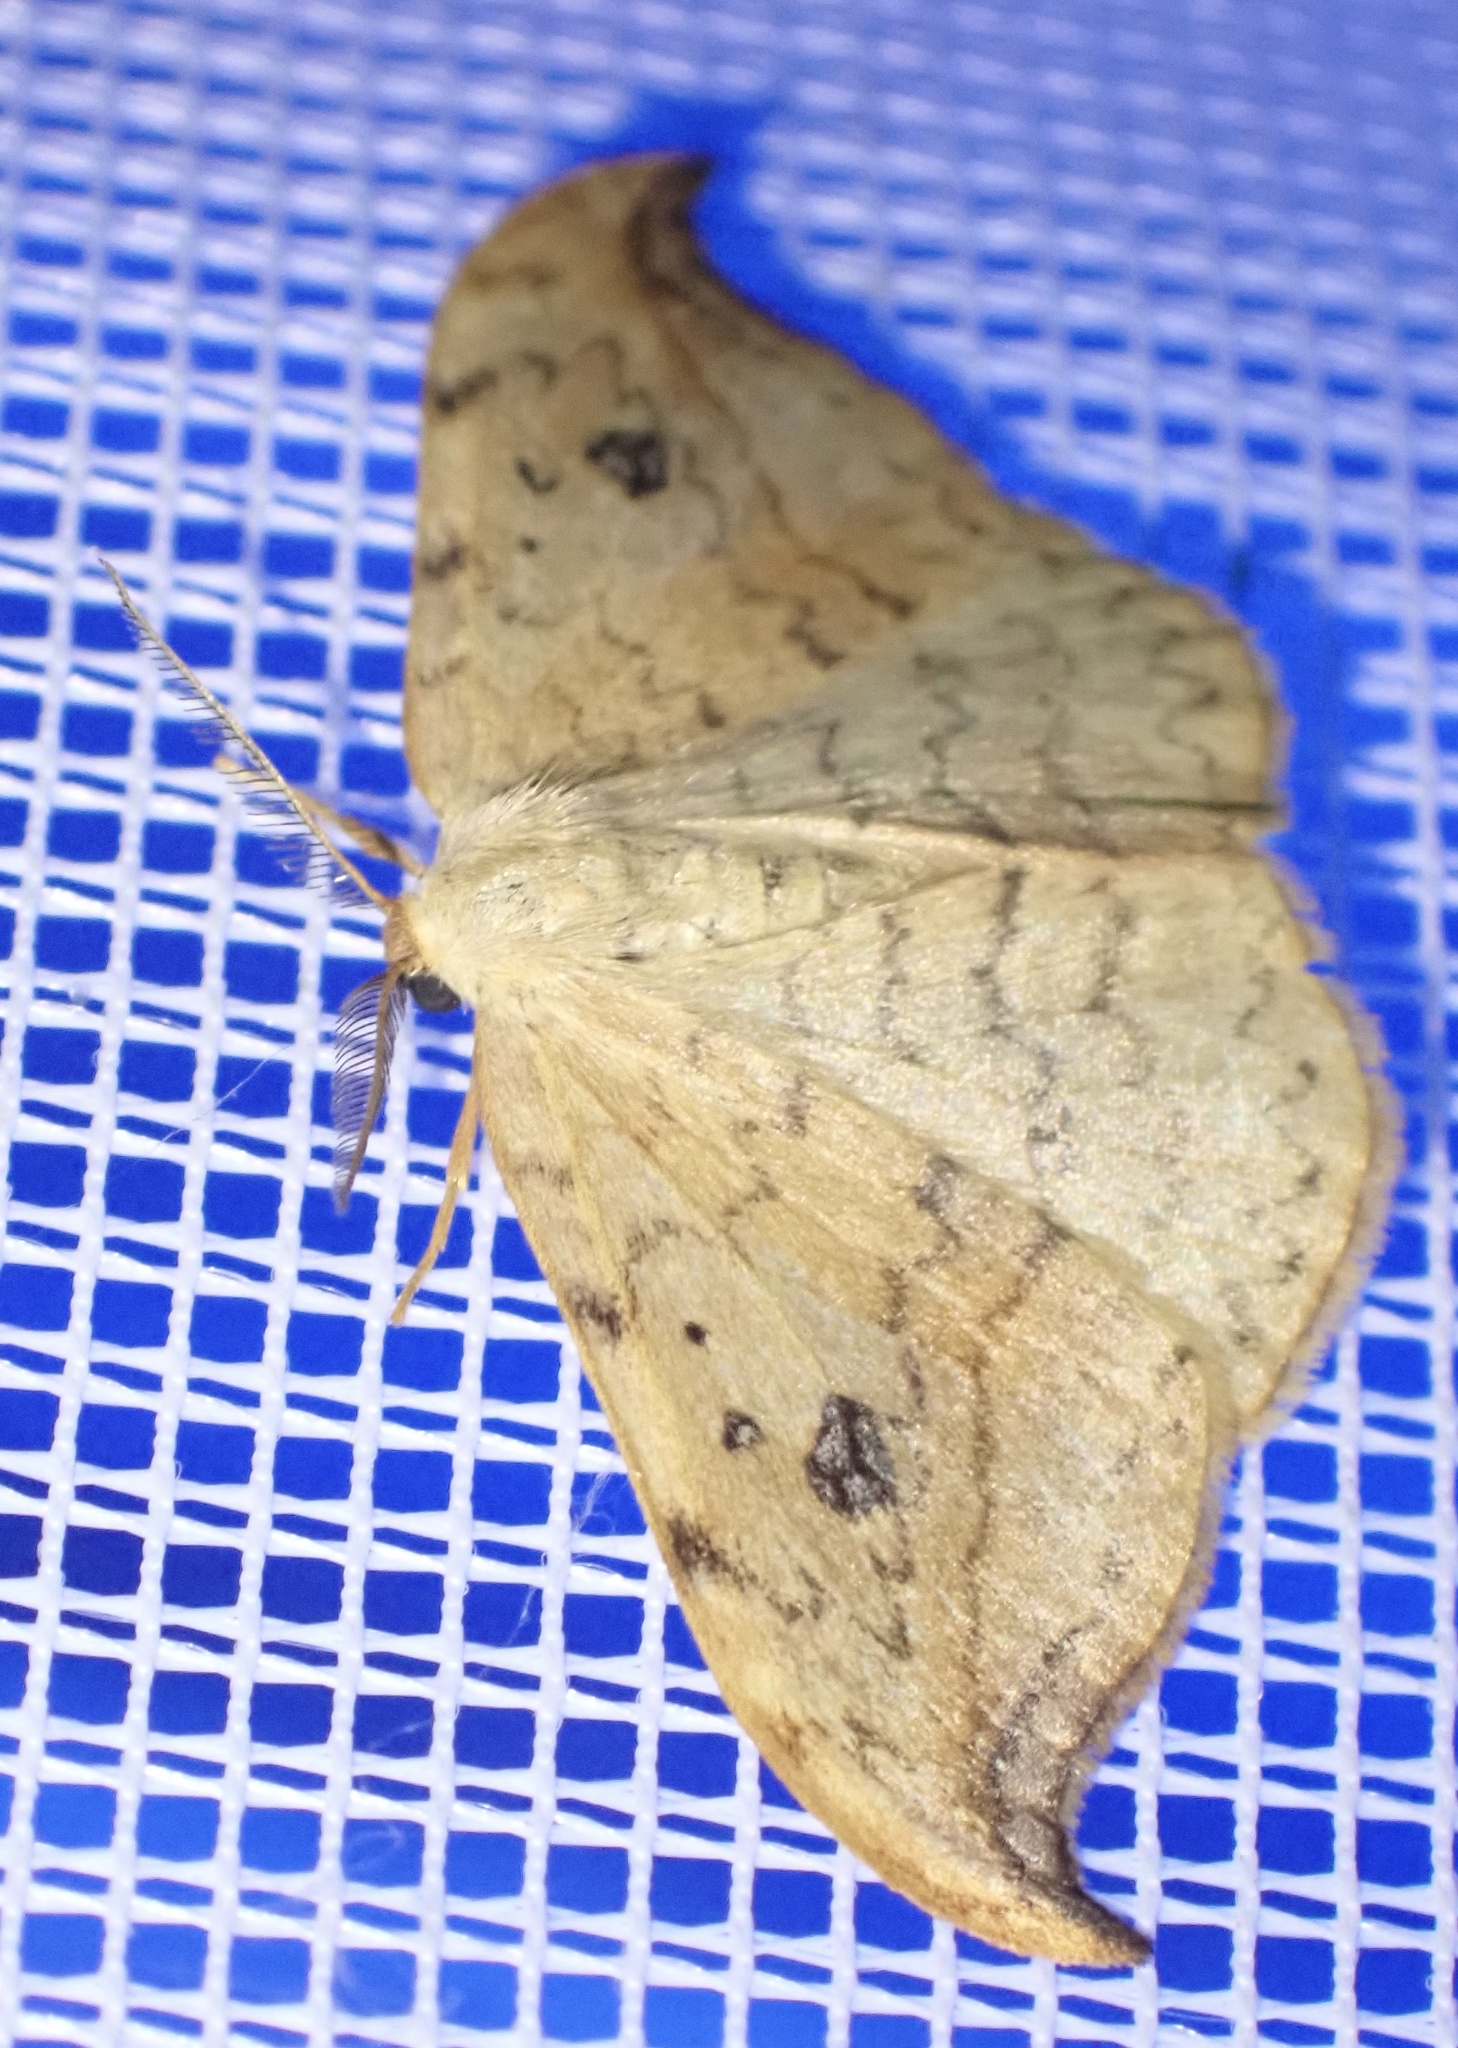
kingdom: Animalia
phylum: Arthropoda
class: Insecta
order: Lepidoptera
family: Drepanidae
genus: Drepana
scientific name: Drepana falcataria
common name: Pebble hook-tip
